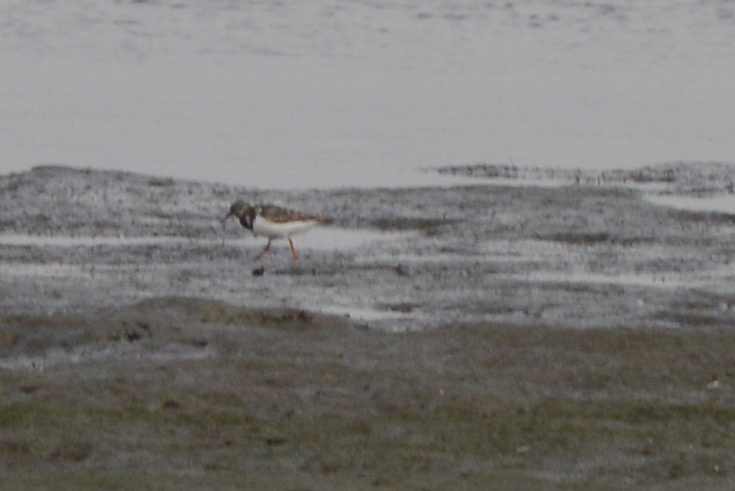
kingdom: Animalia
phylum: Chordata
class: Aves
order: Charadriiformes
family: Scolopacidae
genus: Arenaria
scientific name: Arenaria interpres
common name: Ruddy turnstone
